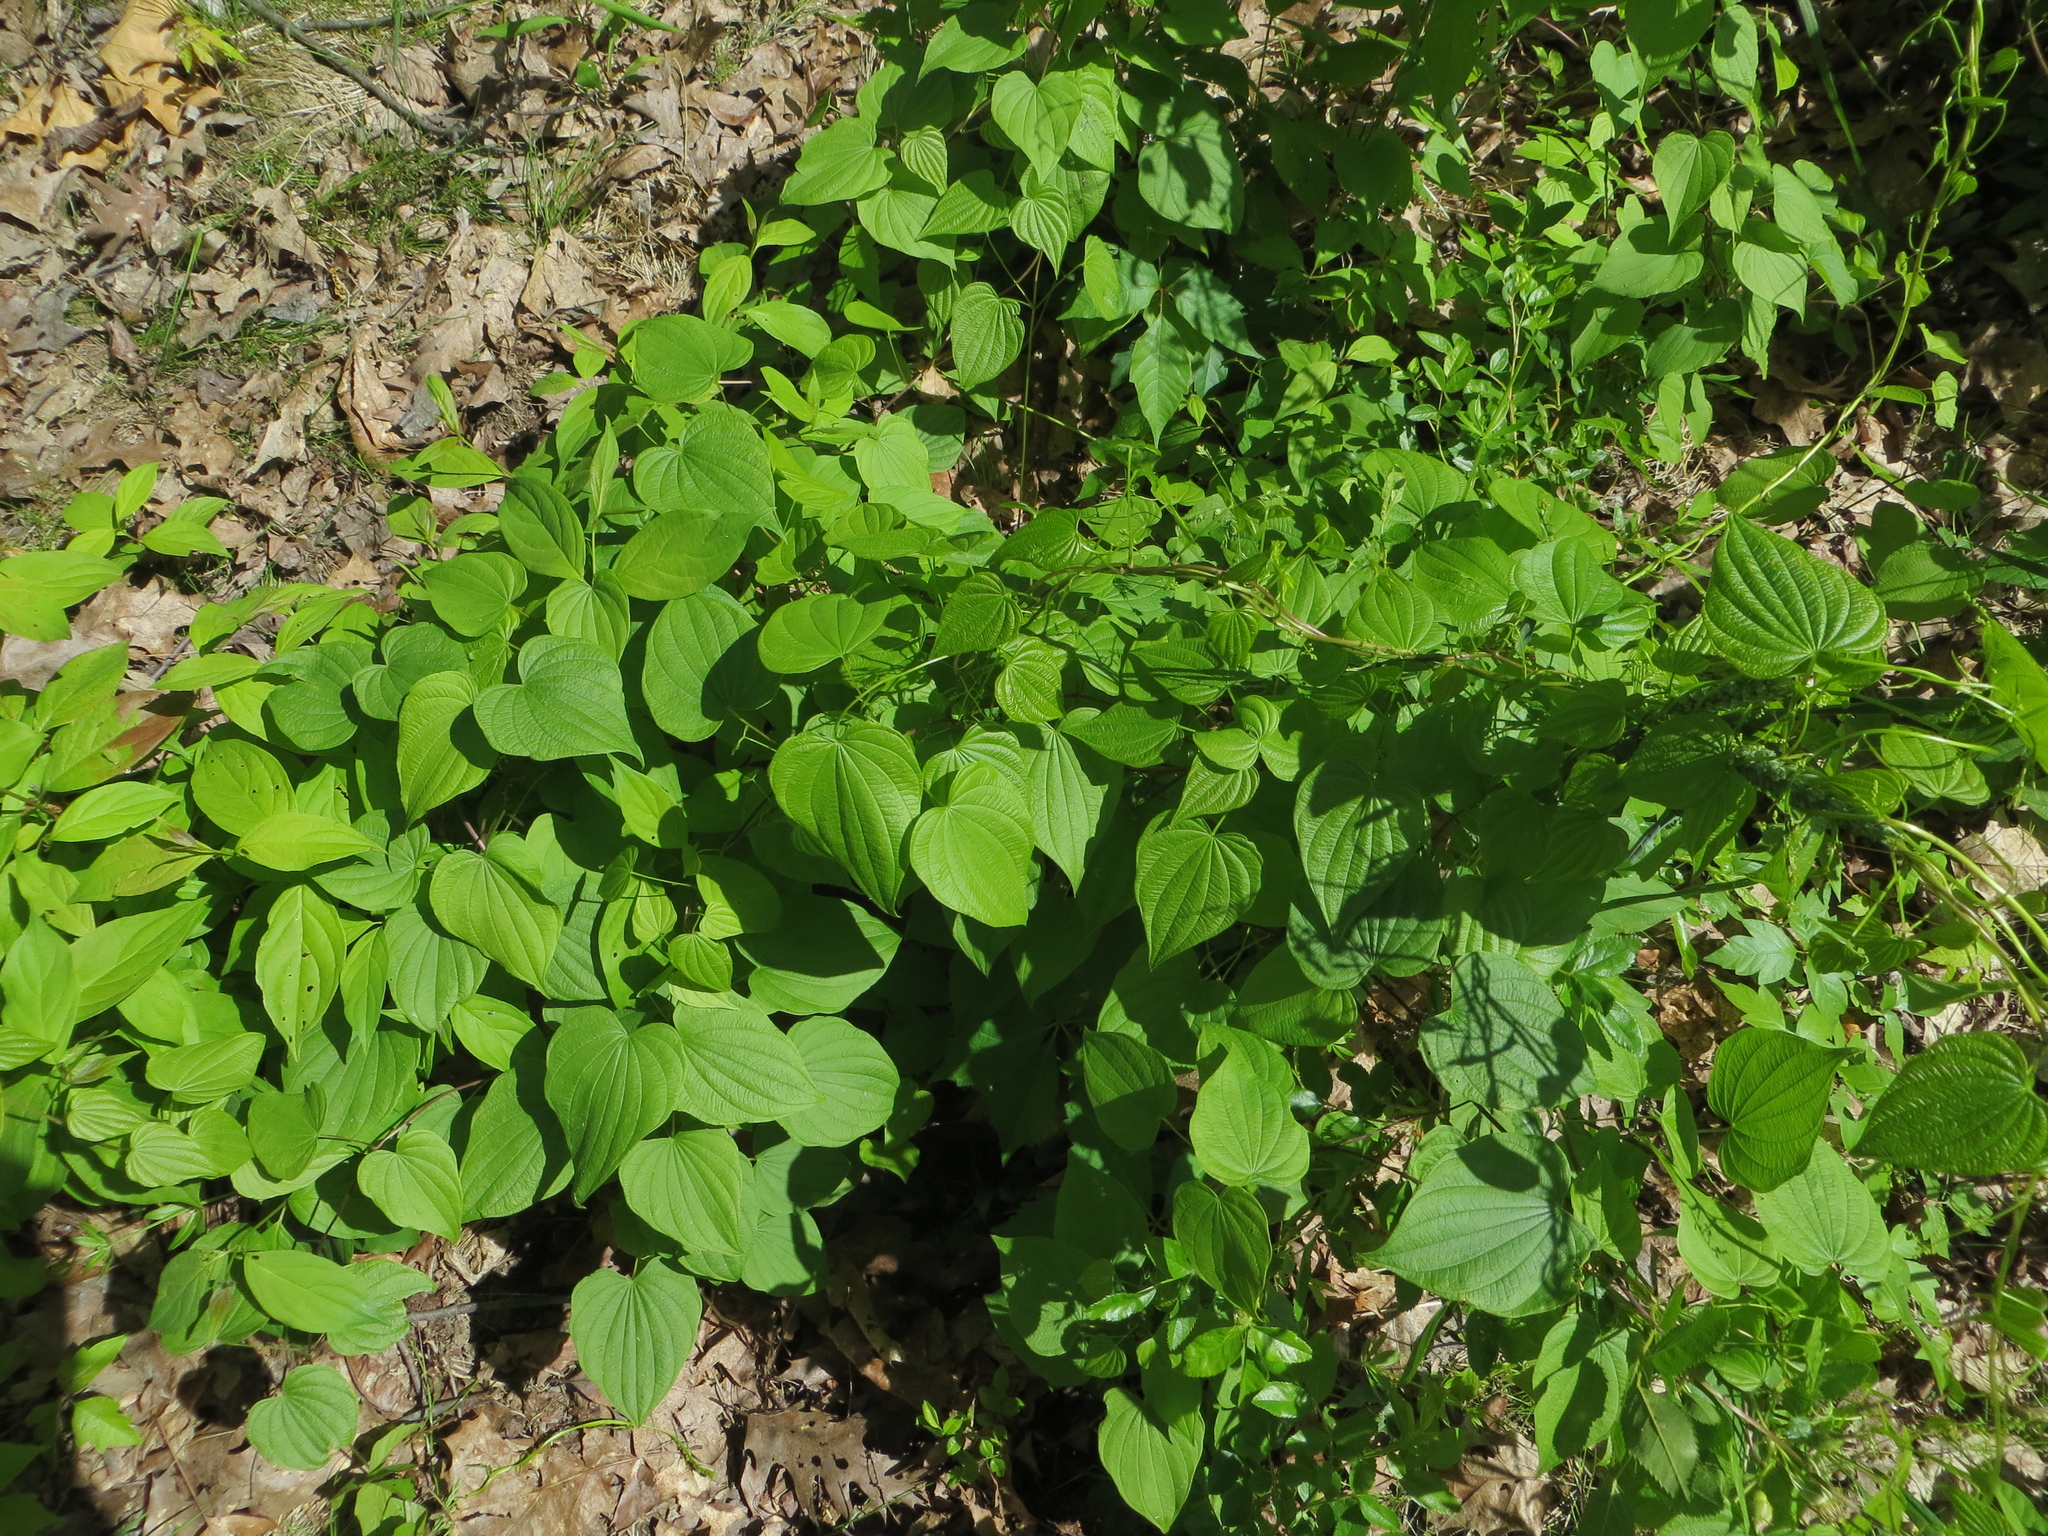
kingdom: Plantae
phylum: Tracheophyta
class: Liliopsida
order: Dioscoreales
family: Dioscoreaceae
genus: Dioscorea
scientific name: Dioscorea villosa
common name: Wild yam
